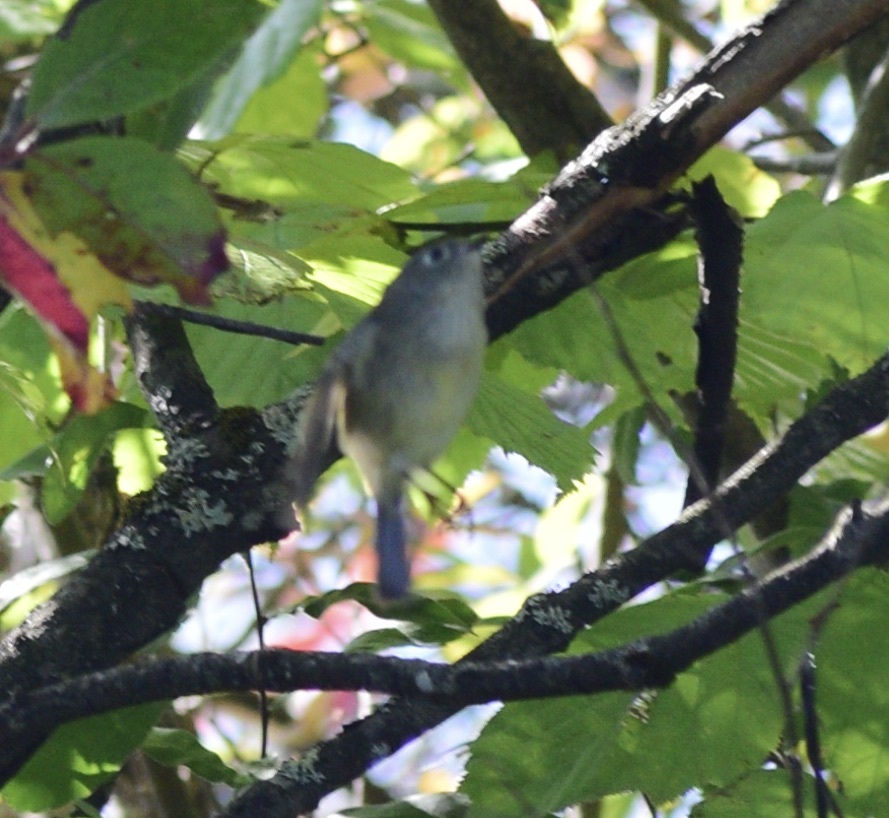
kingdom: Animalia
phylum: Chordata
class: Aves
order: Passeriformes
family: Regulidae
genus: Regulus
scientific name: Regulus calendula
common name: Ruby-crowned kinglet
